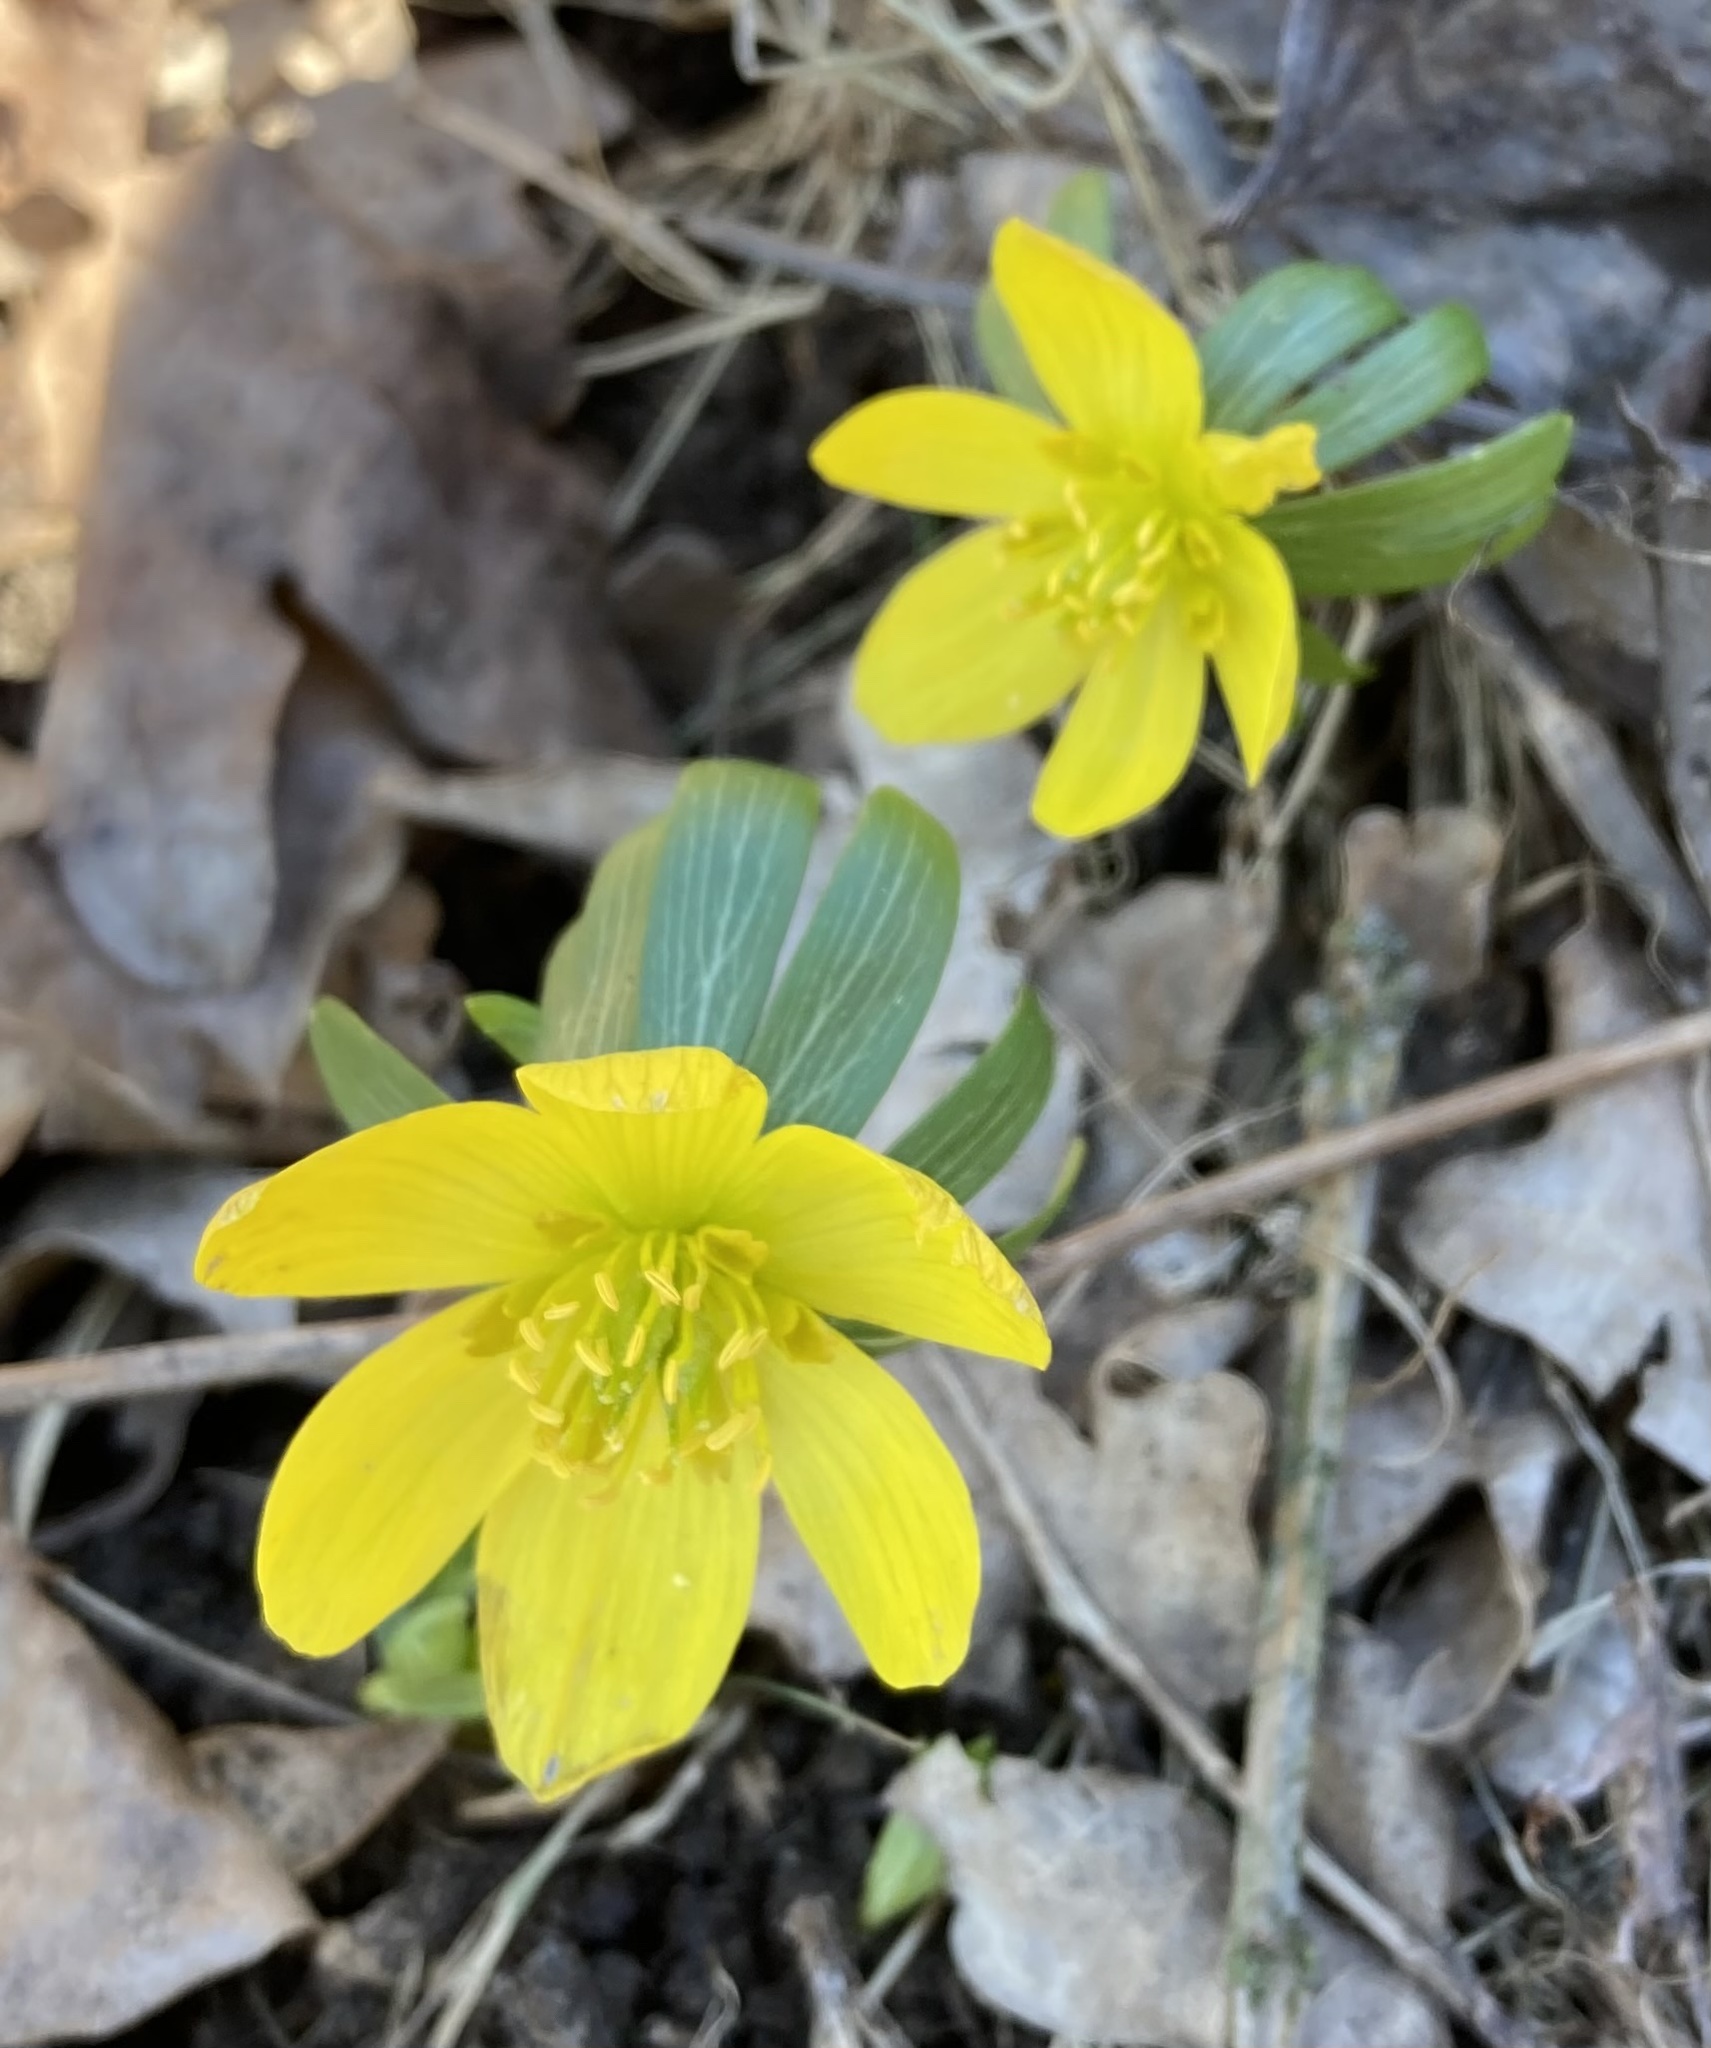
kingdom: Plantae
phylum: Tracheophyta
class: Magnoliopsida
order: Ranunculales
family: Ranunculaceae
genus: Eranthis
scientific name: Eranthis hyemalis
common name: Winter aconite
